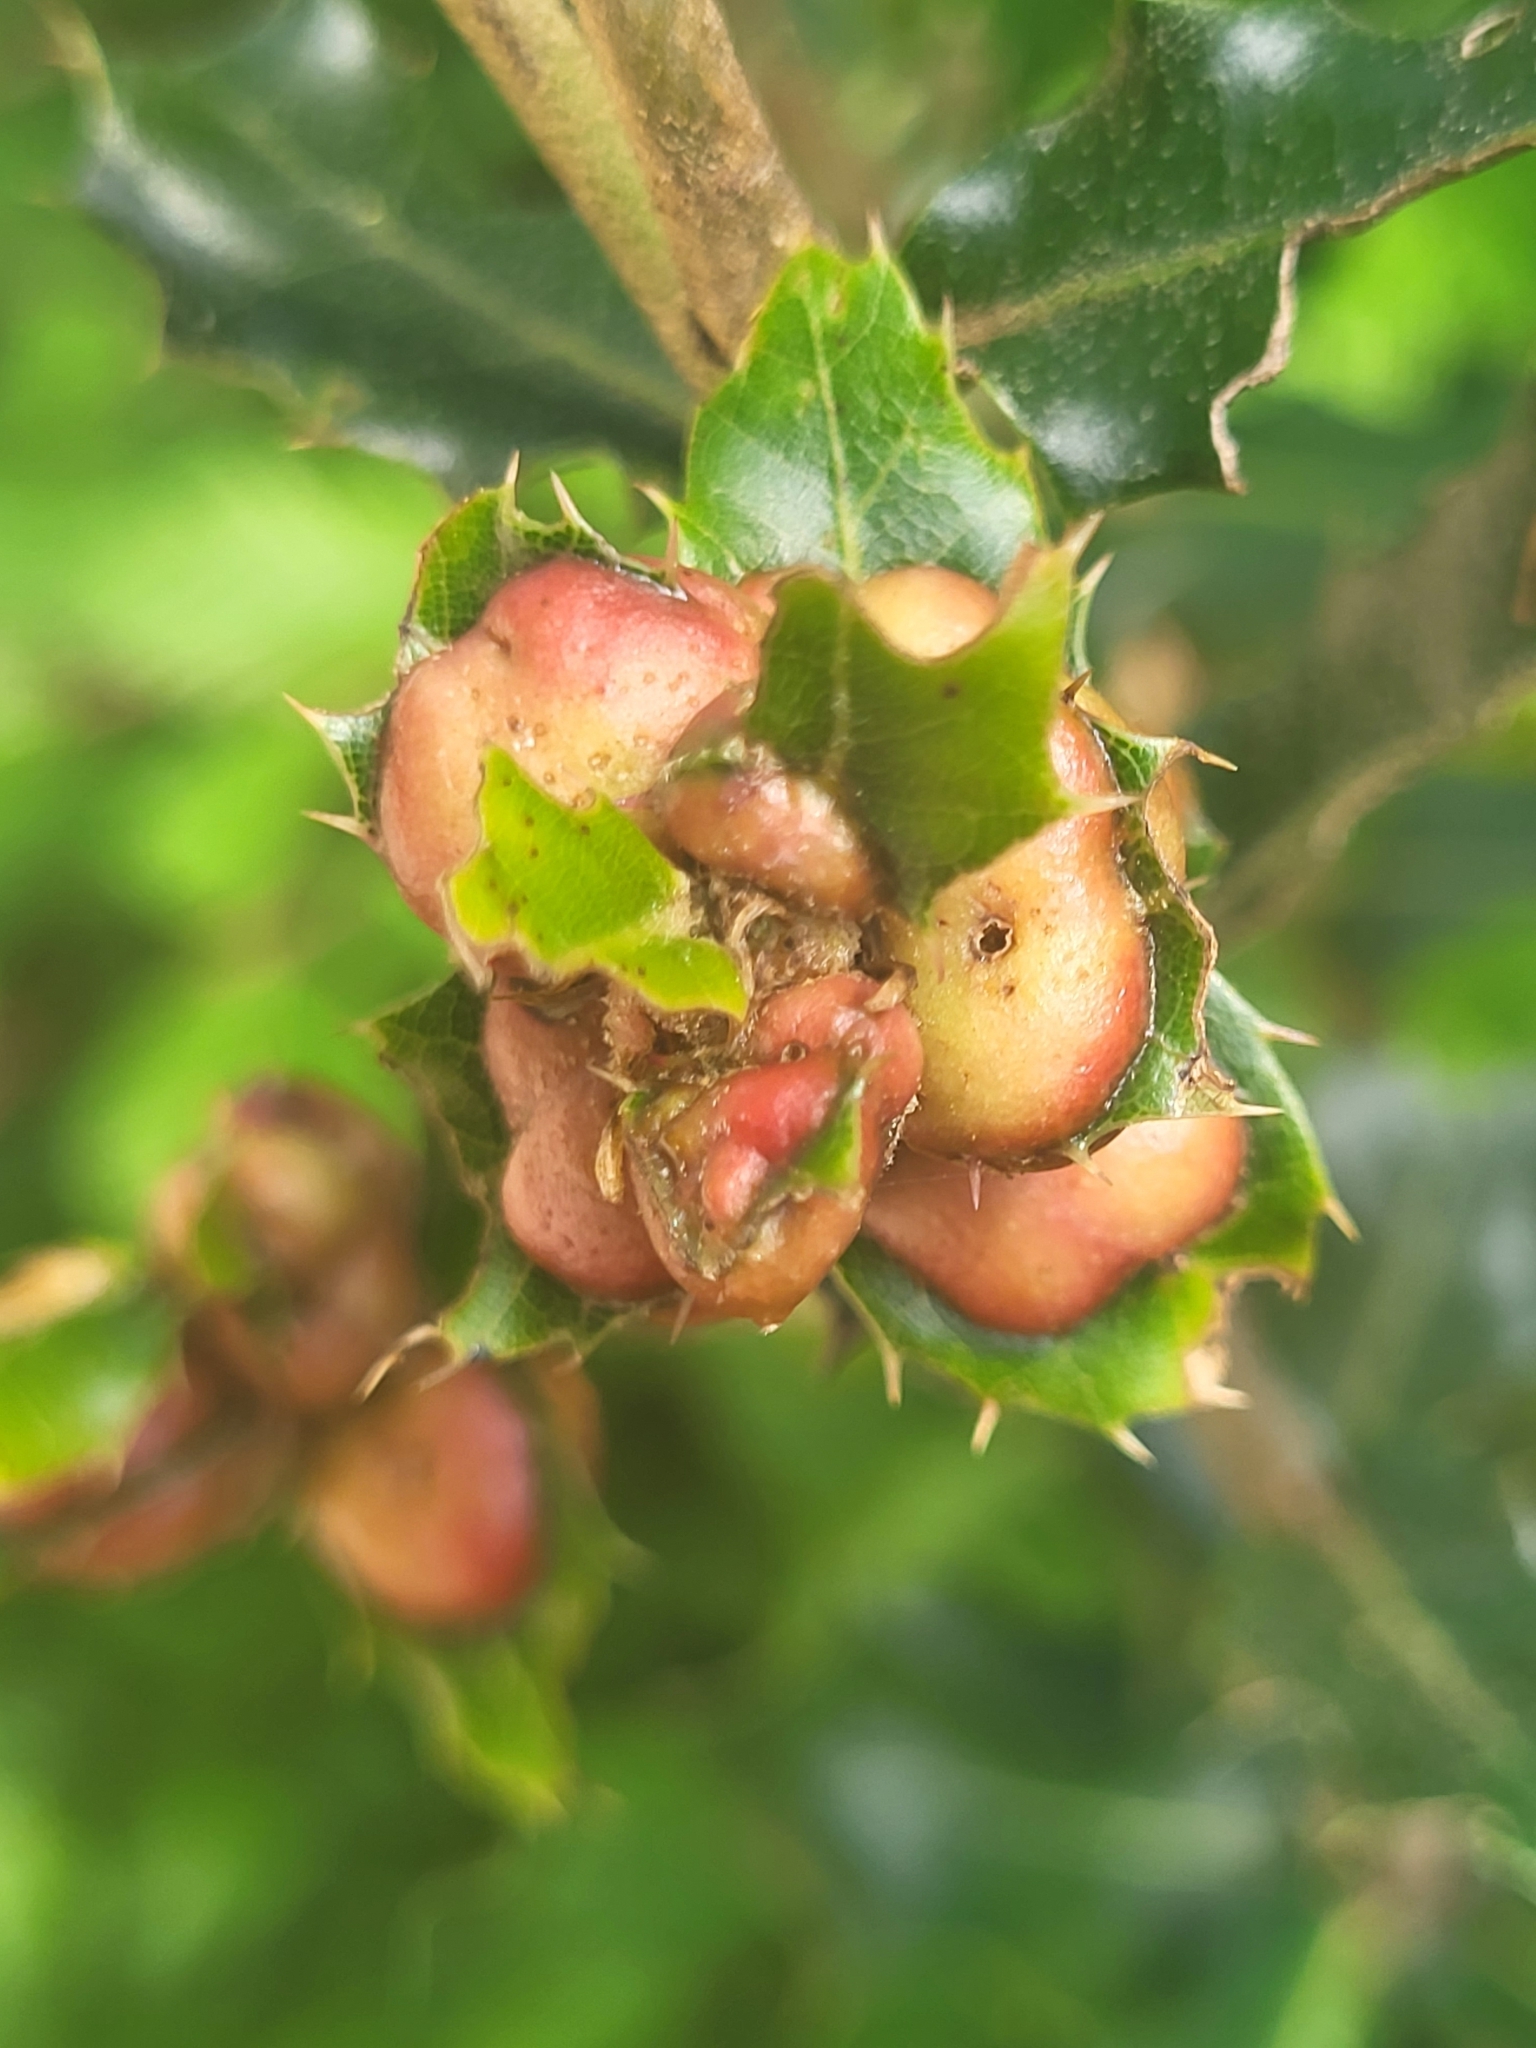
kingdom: Animalia
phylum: Arthropoda
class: Insecta
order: Hymenoptera
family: Cynipidae
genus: Plagiotrochus
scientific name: Plagiotrochus quercusilicis
